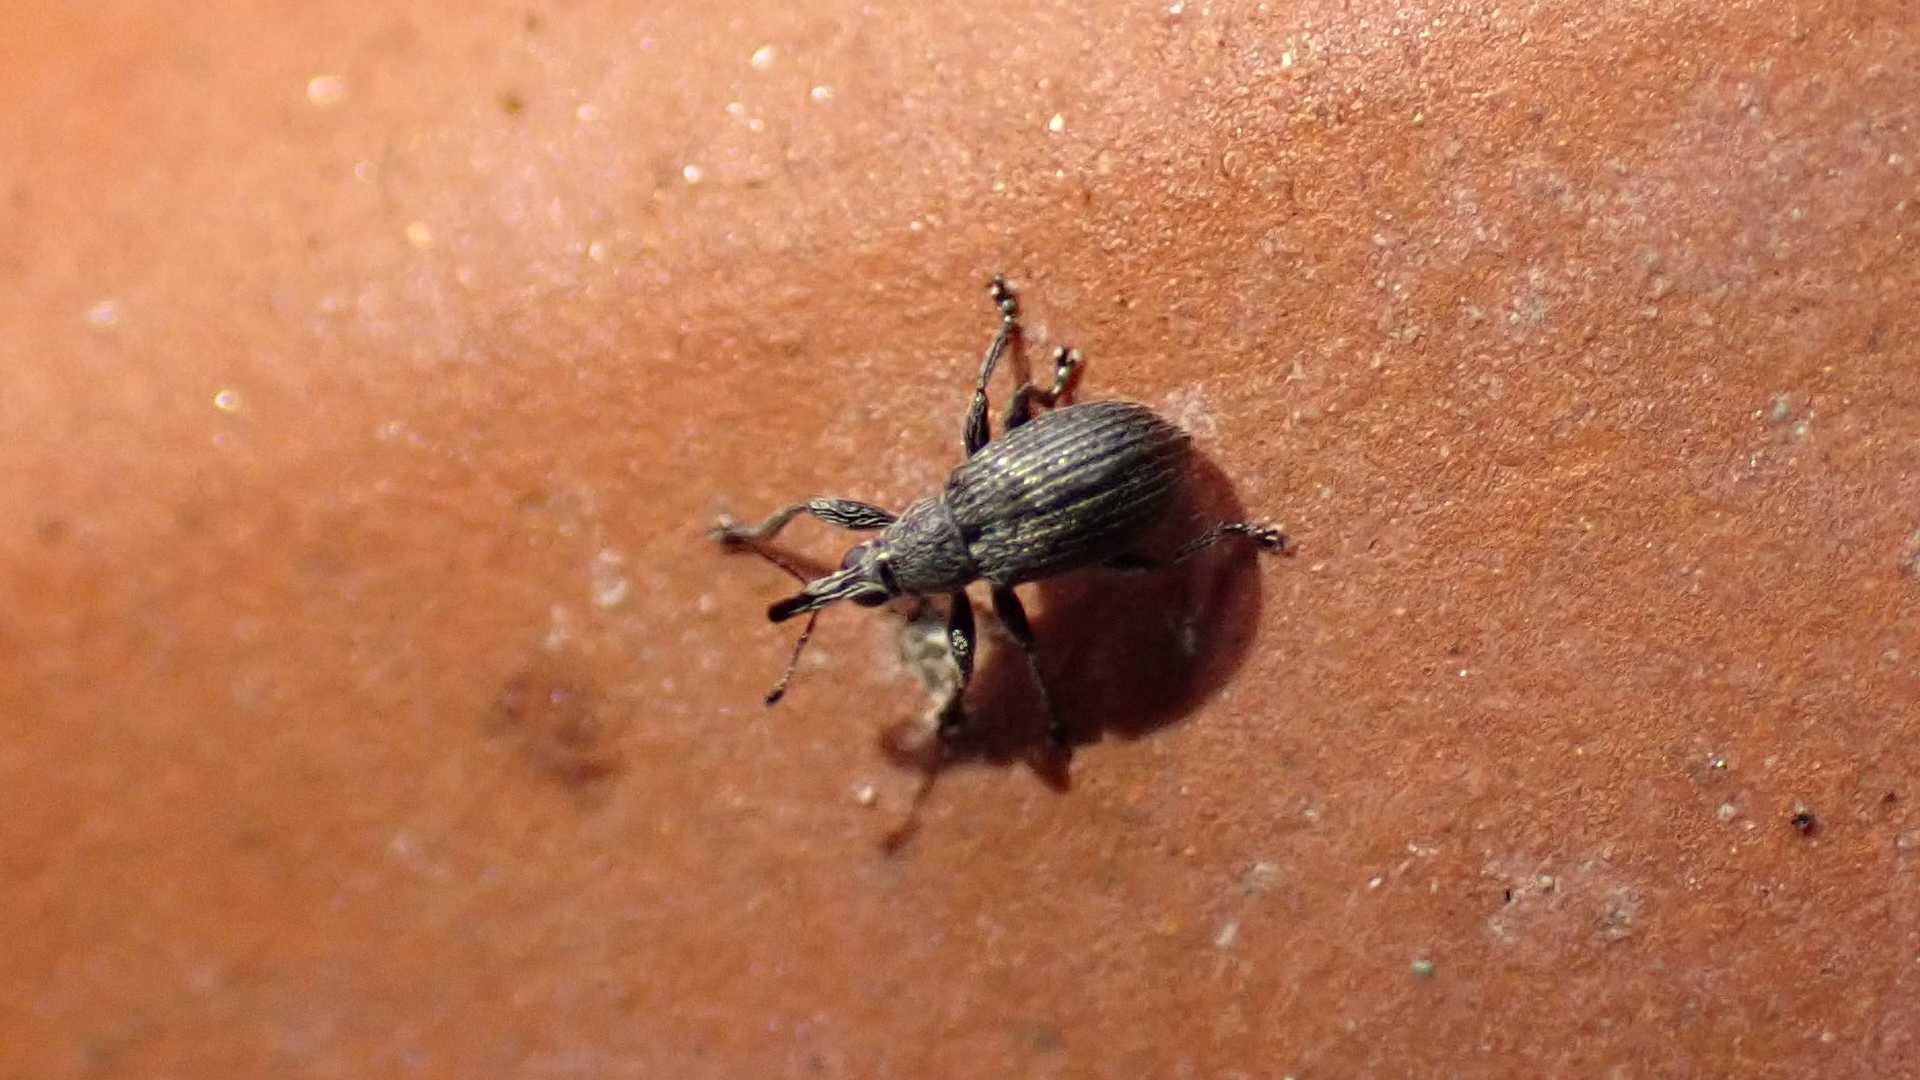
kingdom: Animalia
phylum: Arthropoda
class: Insecta
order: Coleoptera
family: Brentidae
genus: Betulapion
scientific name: Betulapion simile
